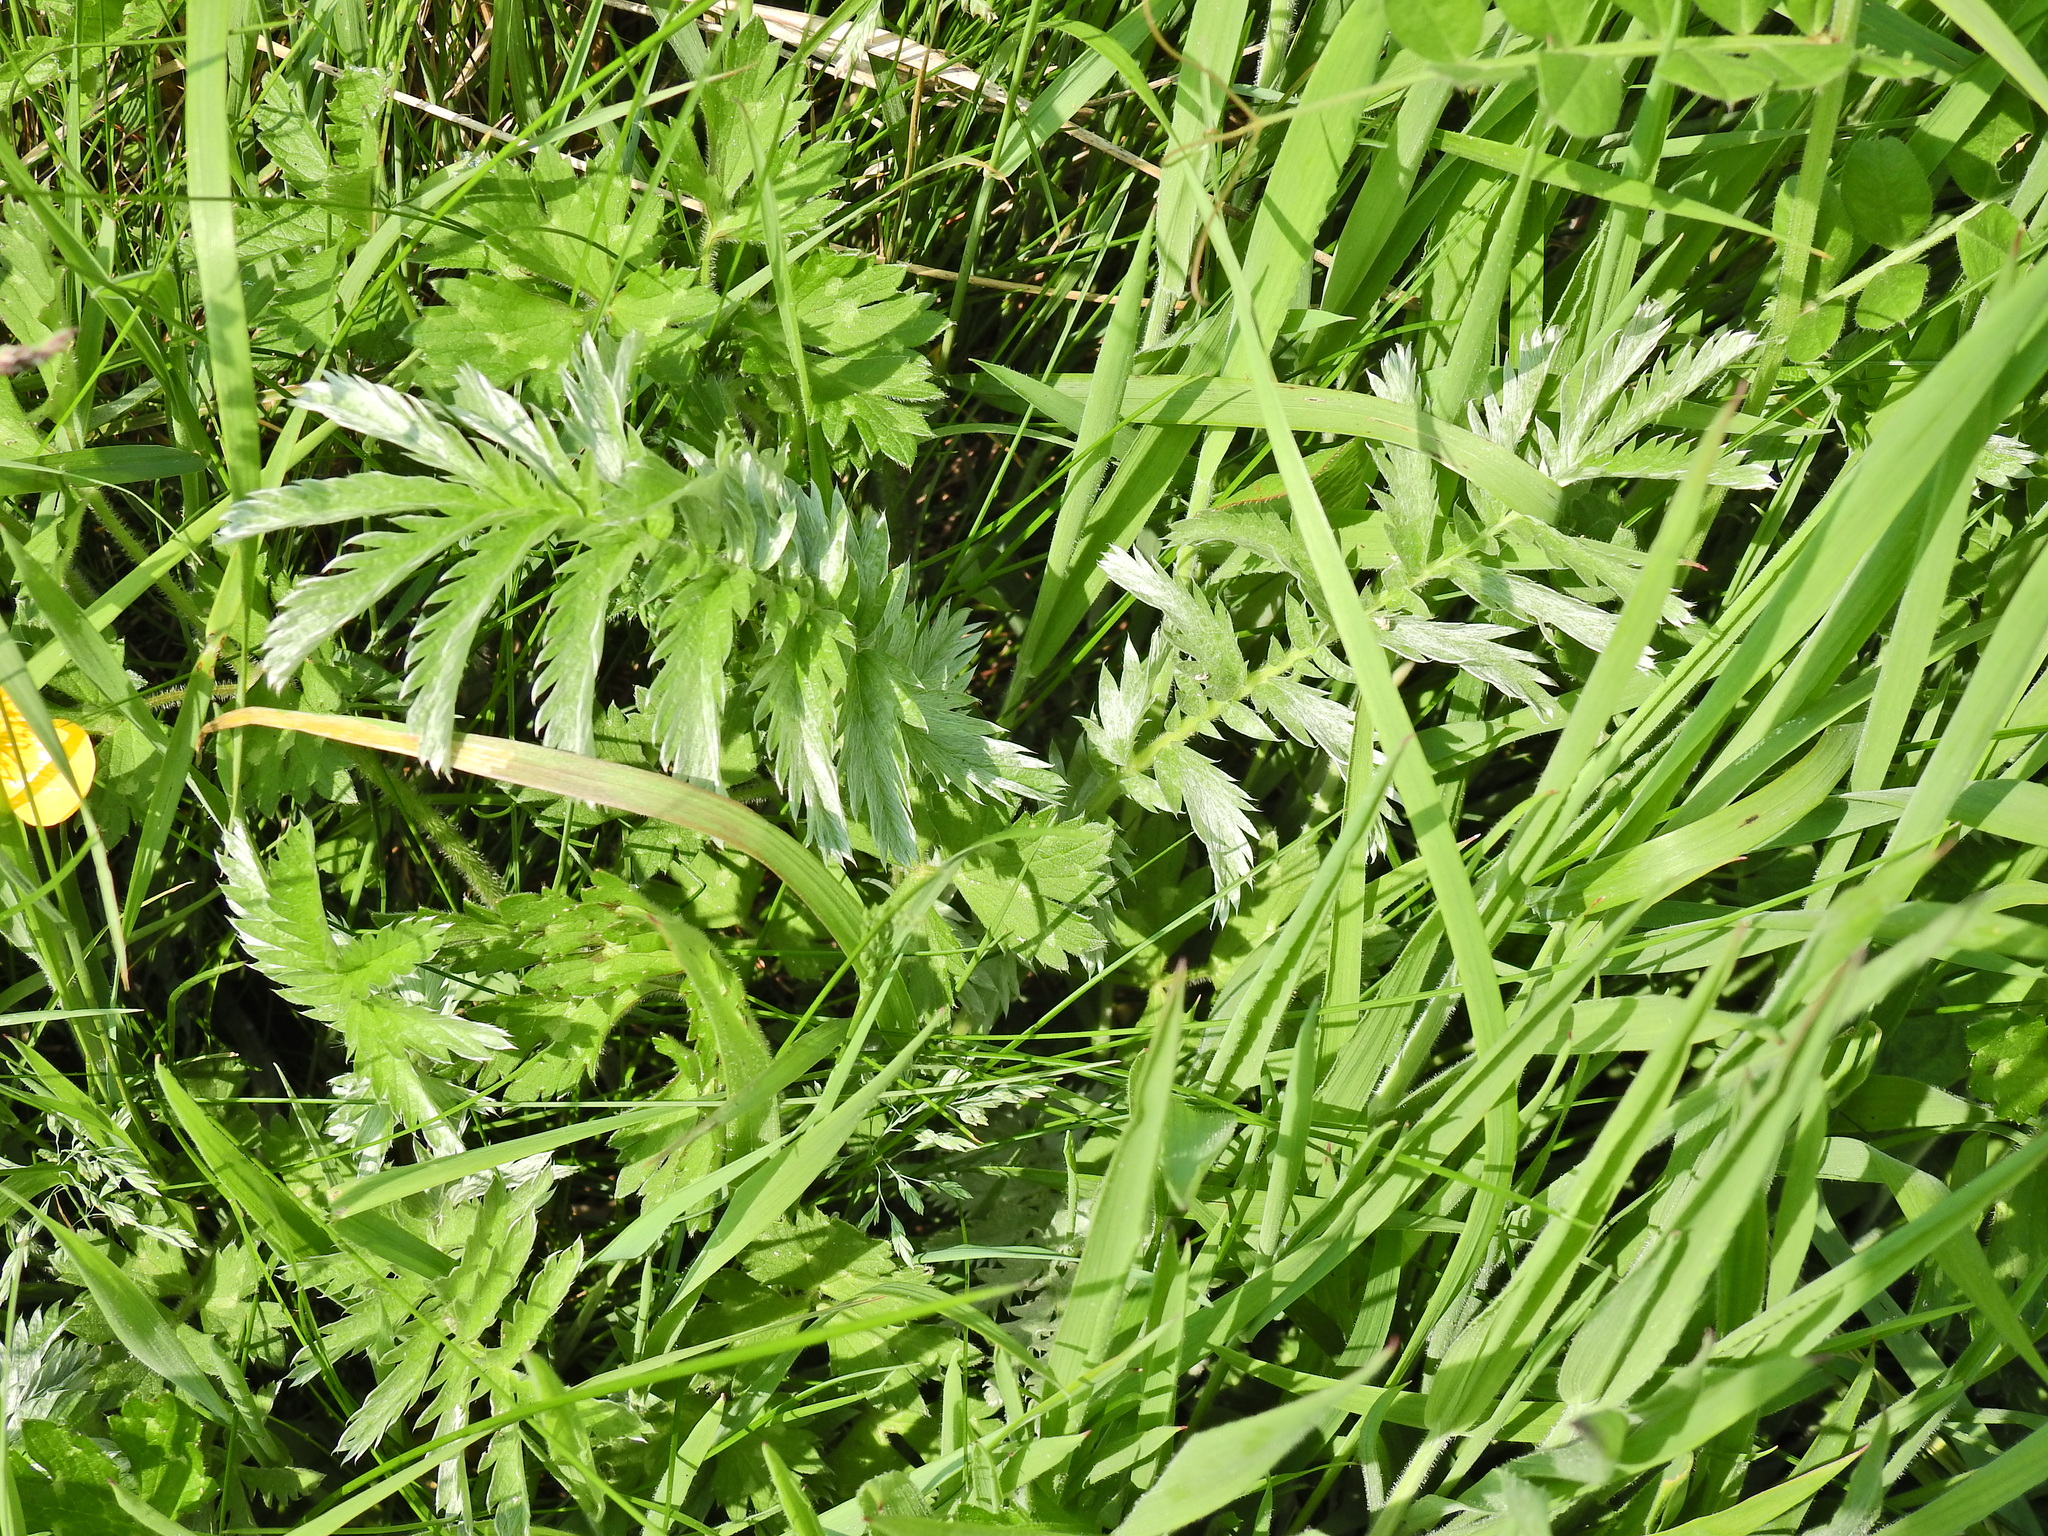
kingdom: Plantae
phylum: Tracheophyta
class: Magnoliopsida
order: Rosales
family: Rosaceae
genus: Argentina
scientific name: Argentina anserina
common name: Common silverweed
